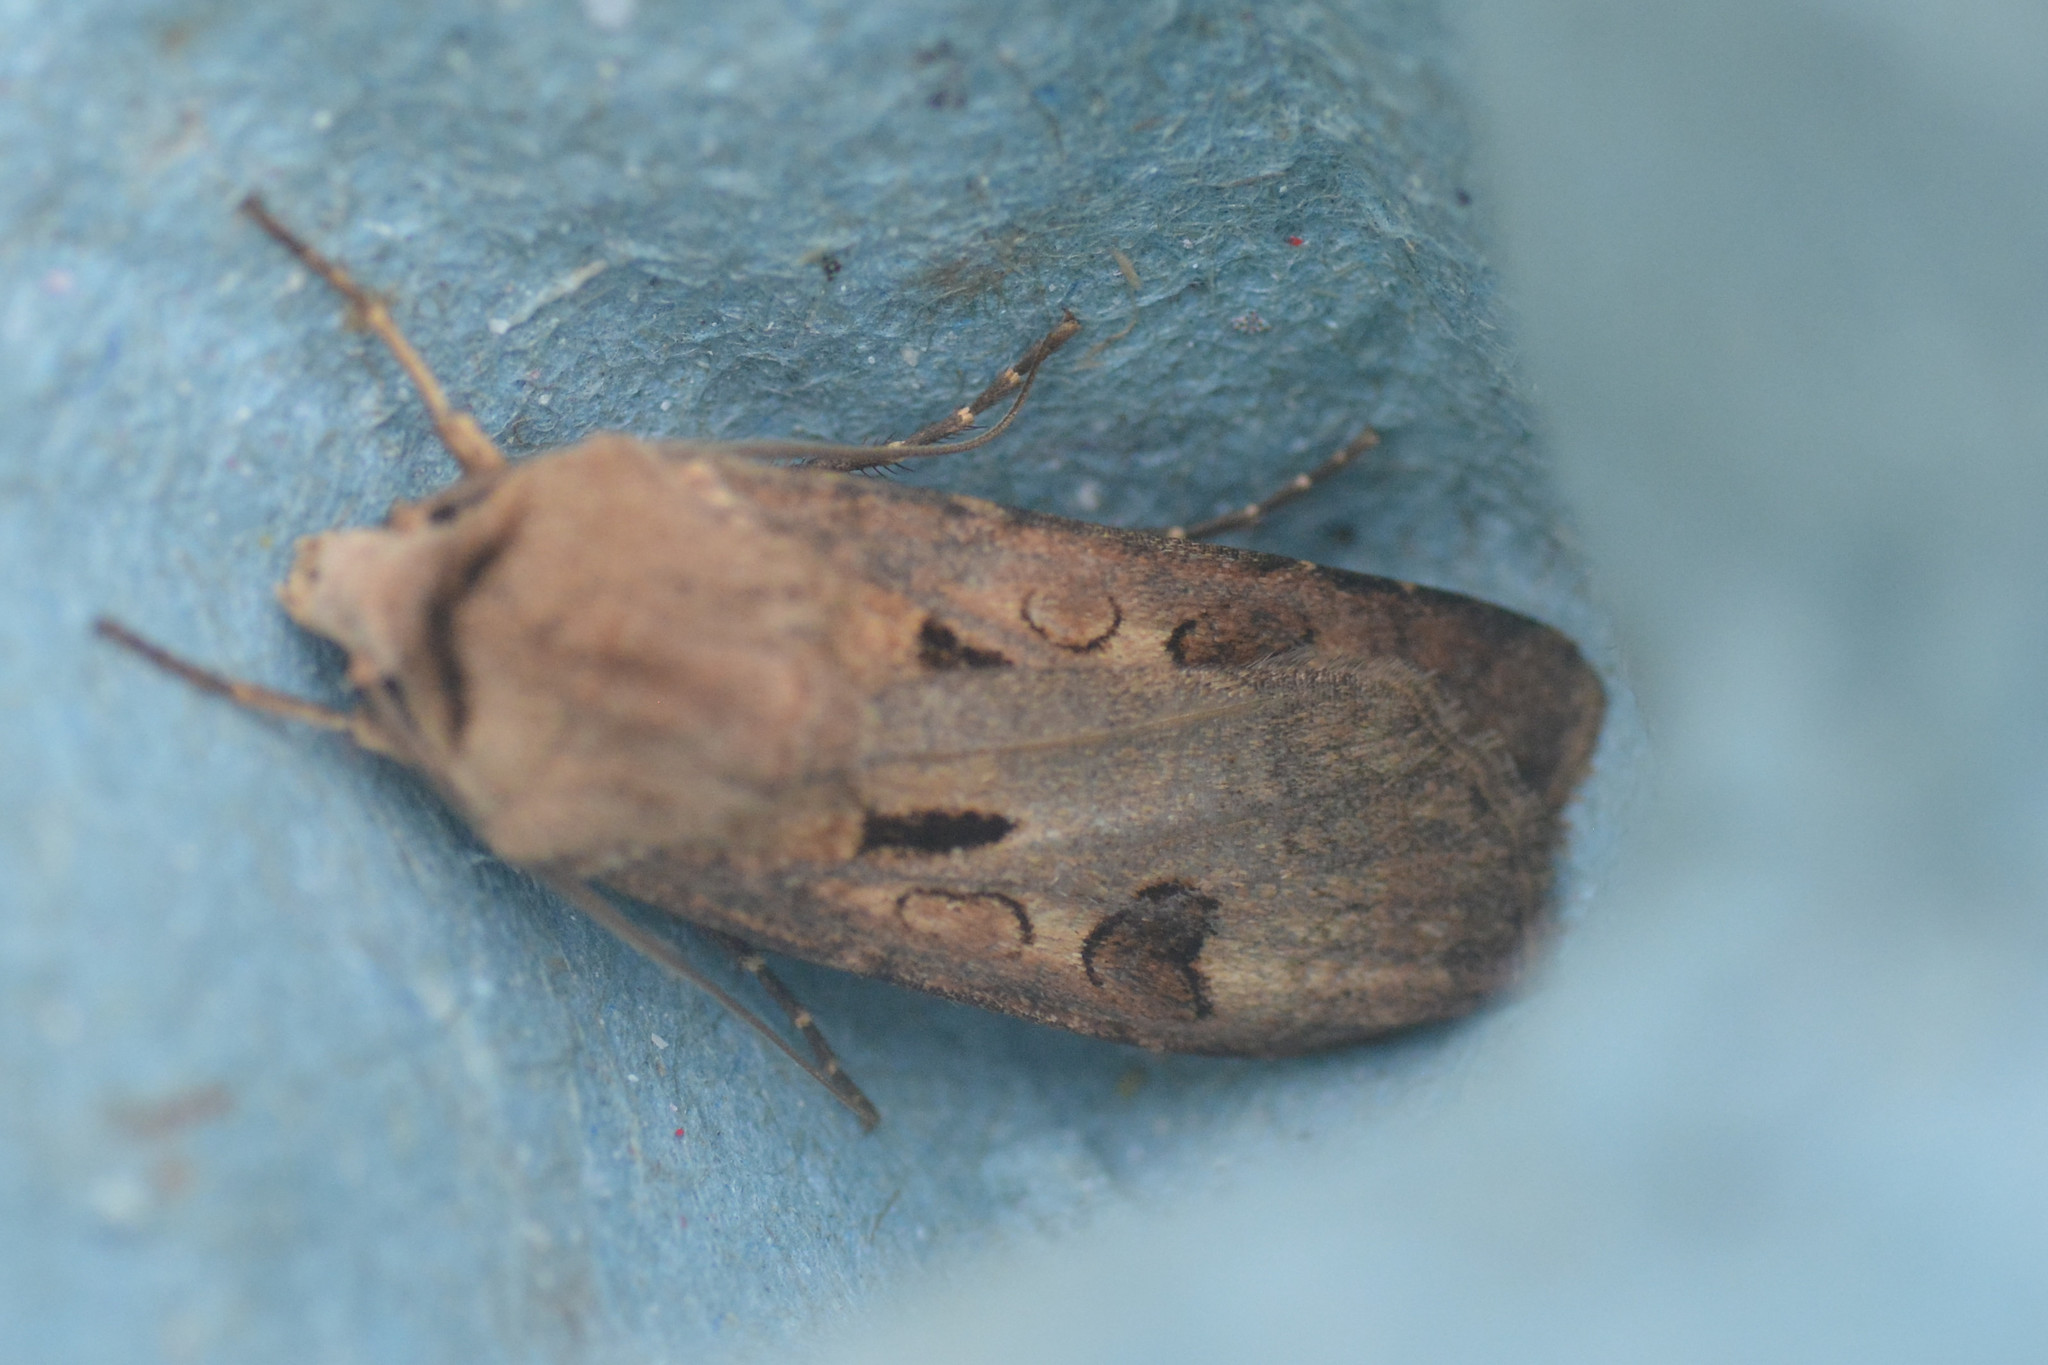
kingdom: Animalia
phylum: Arthropoda
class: Insecta
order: Lepidoptera
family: Noctuidae
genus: Agrotis
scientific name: Agrotis exclamationis
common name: Heart and dart
